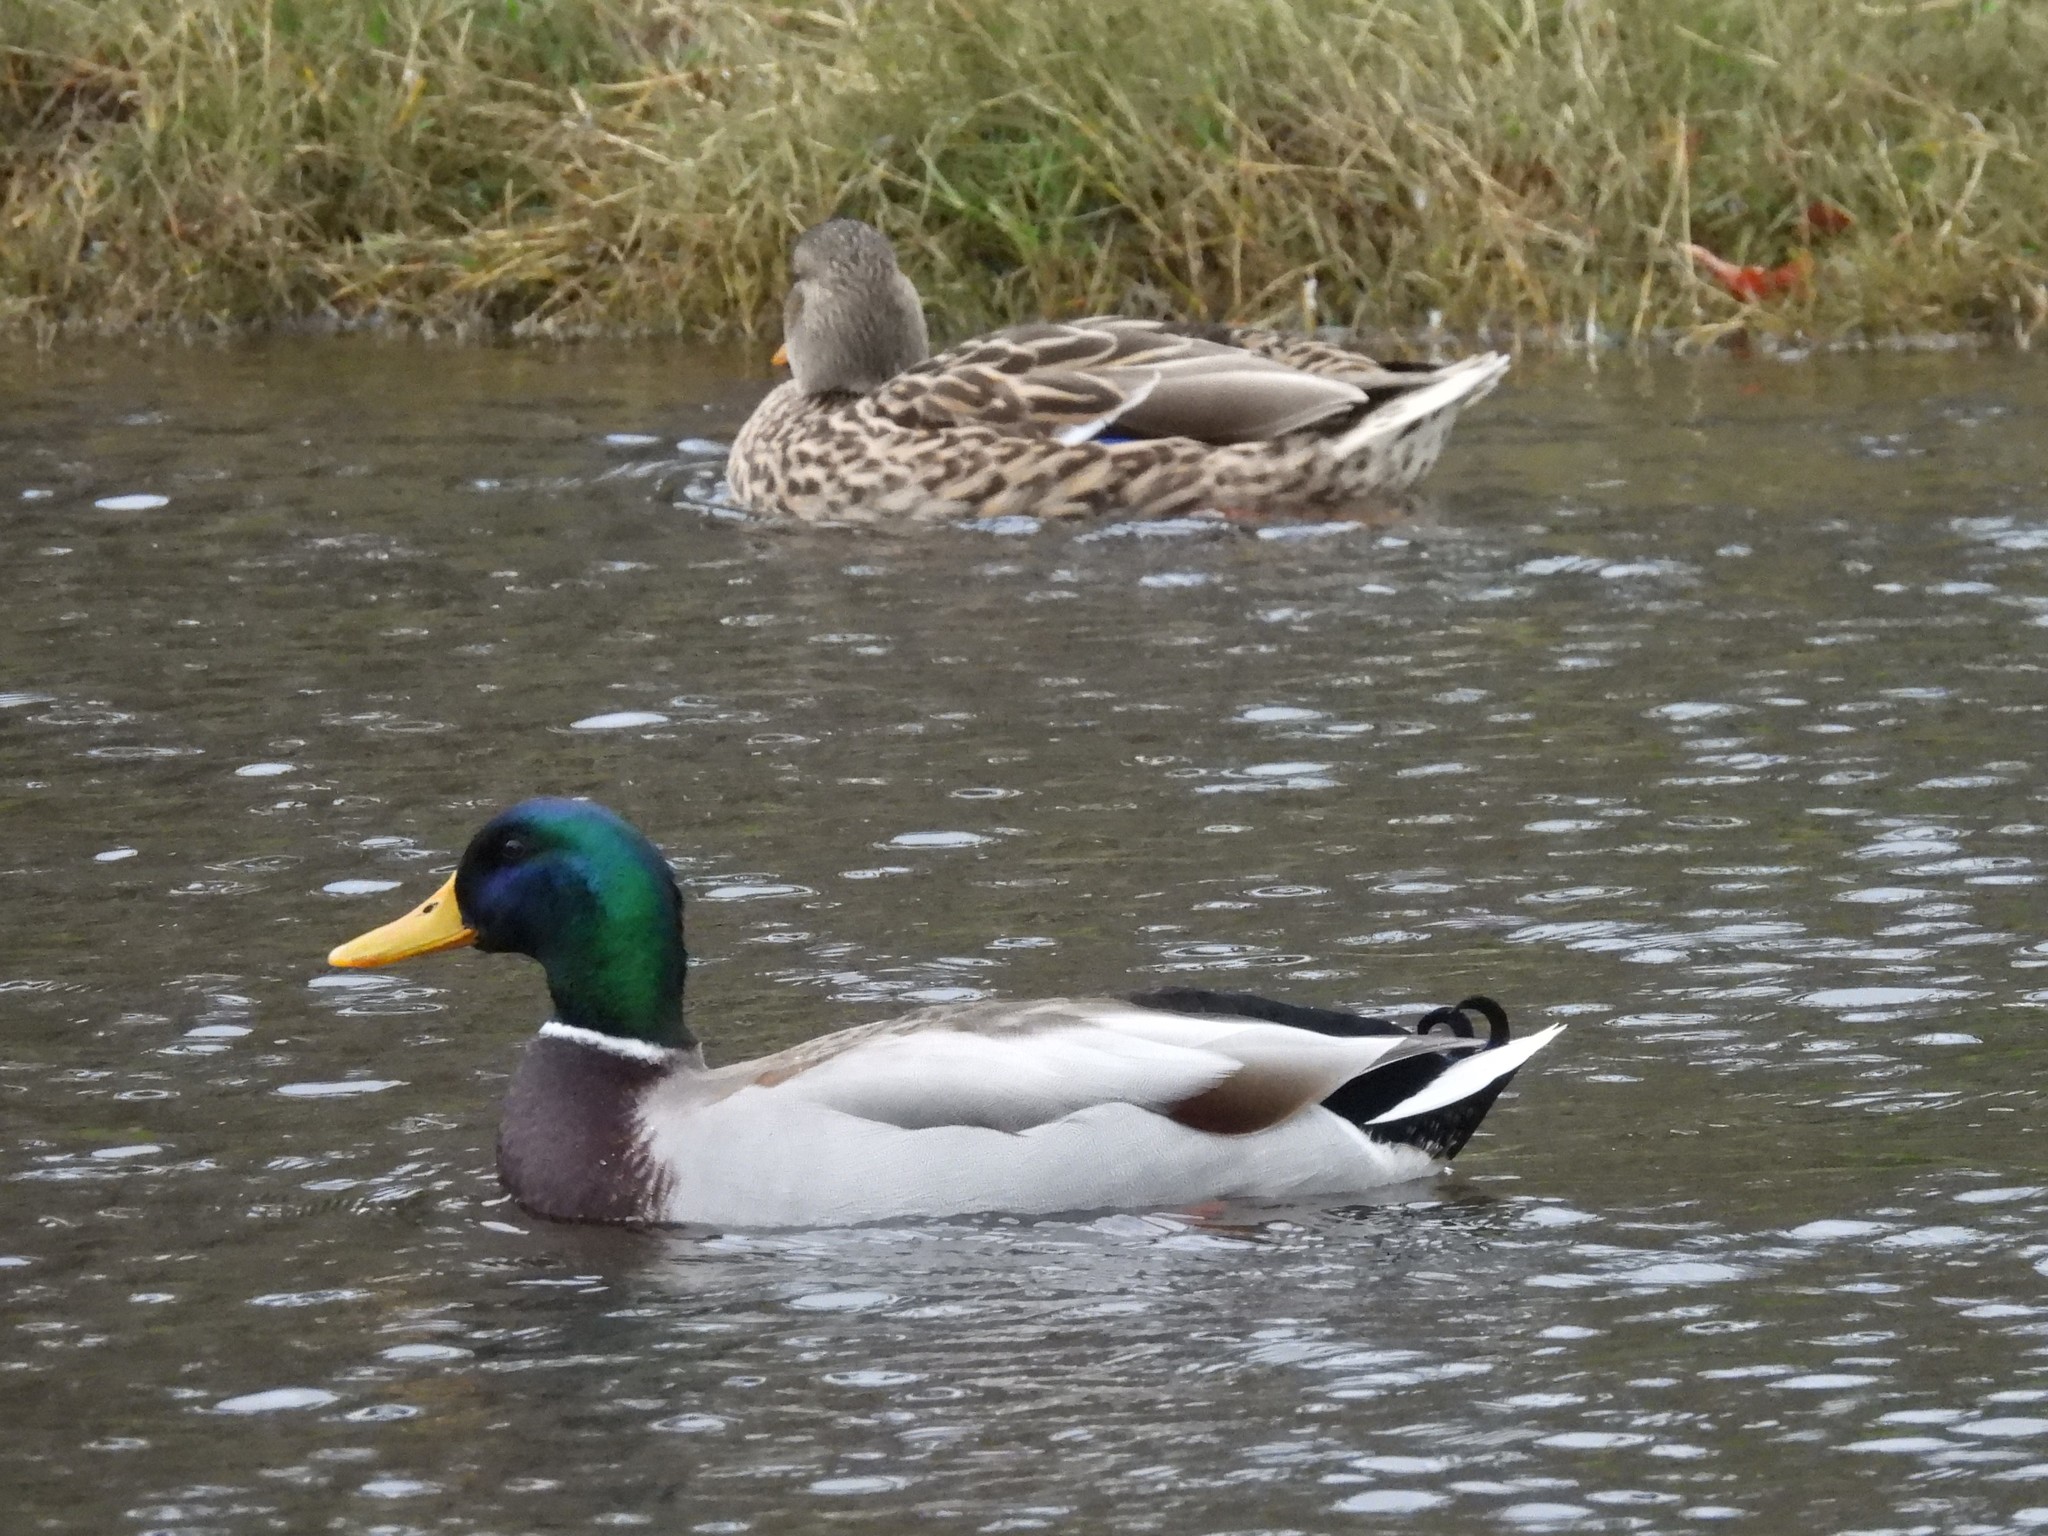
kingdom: Animalia
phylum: Chordata
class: Aves
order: Anseriformes
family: Anatidae
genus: Anas
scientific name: Anas platyrhynchos
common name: Mallard
